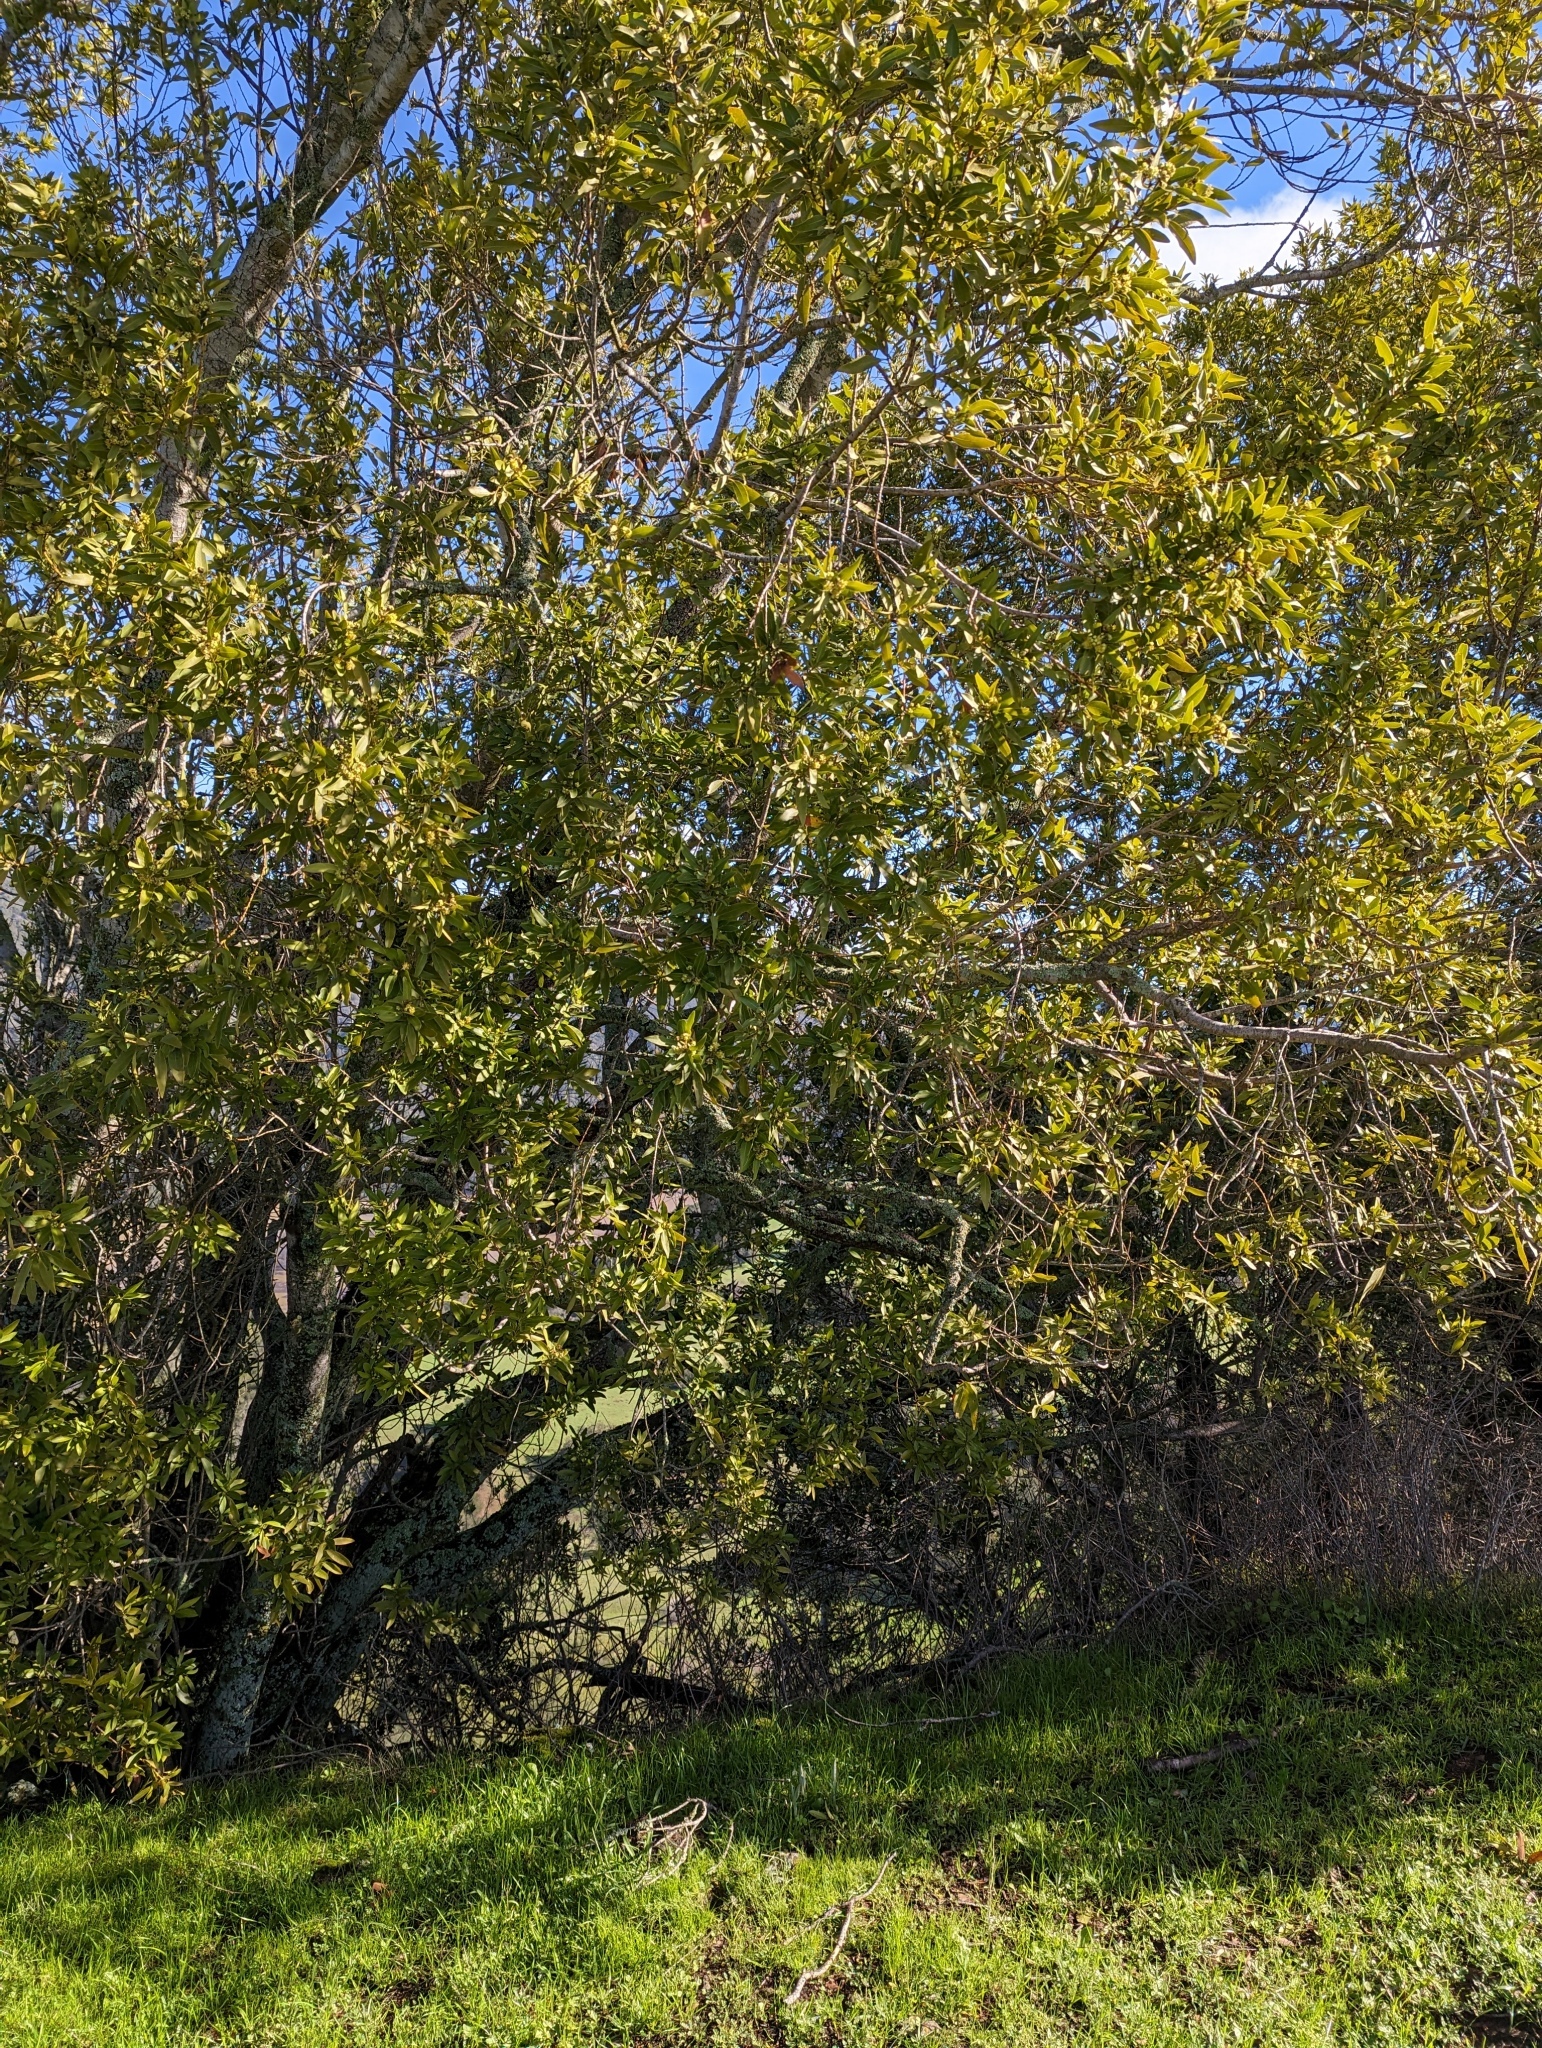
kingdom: Plantae
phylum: Tracheophyta
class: Magnoliopsida
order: Laurales
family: Lauraceae
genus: Umbellularia
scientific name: Umbellularia californica
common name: California bay
